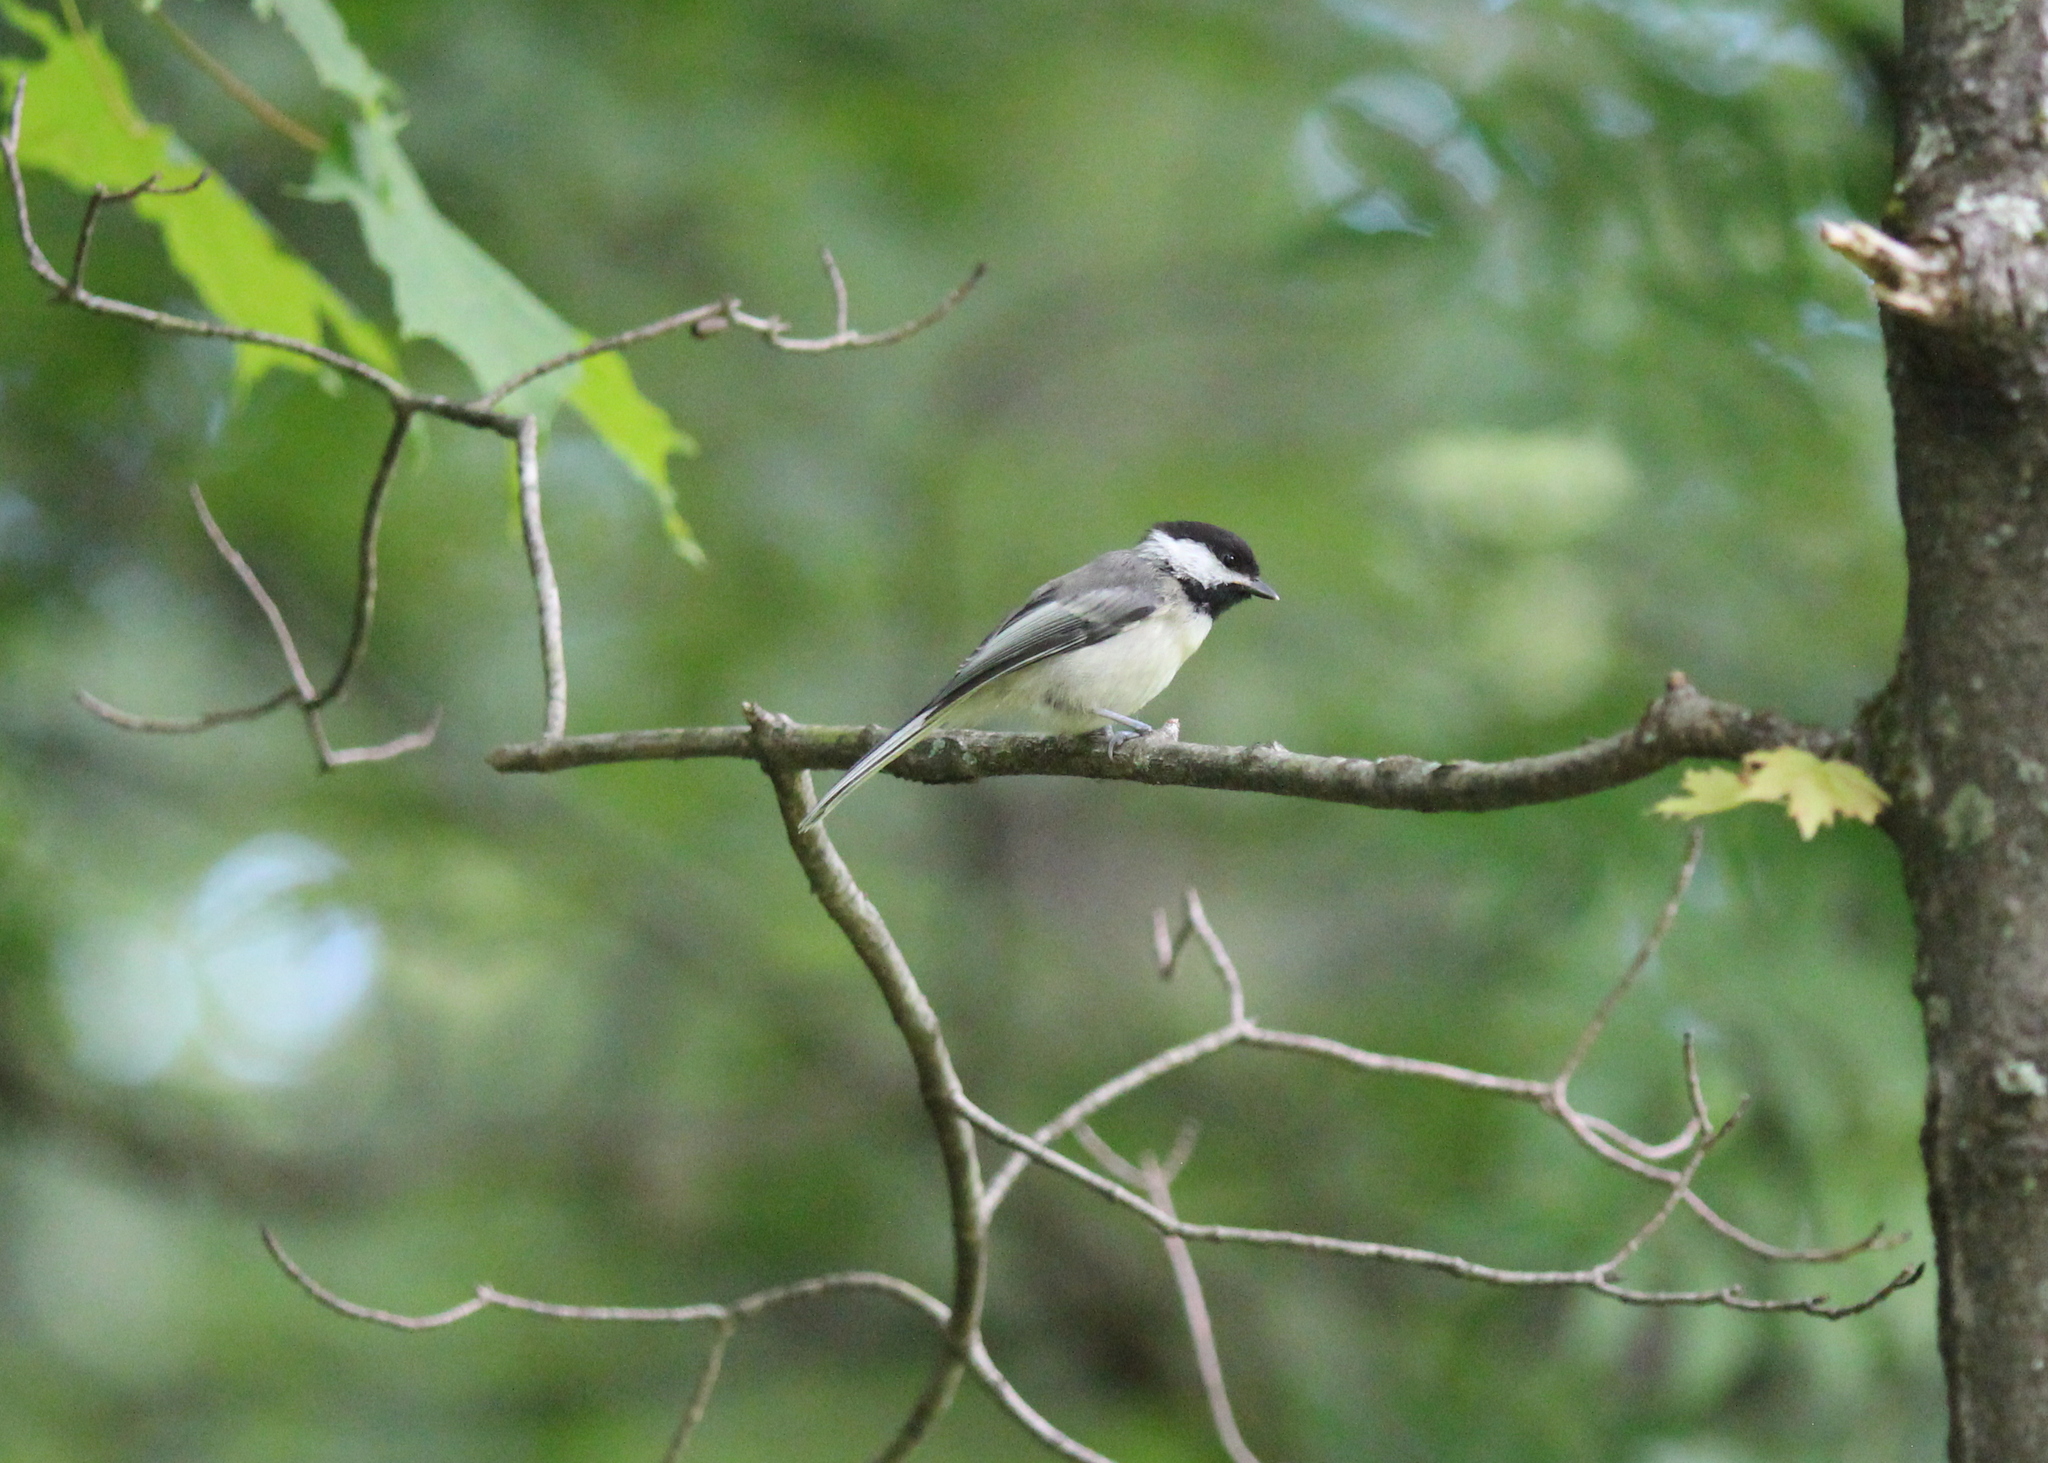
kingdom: Animalia
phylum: Chordata
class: Aves
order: Passeriformes
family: Paridae
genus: Poecile
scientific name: Poecile atricapillus
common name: Black-capped chickadee
